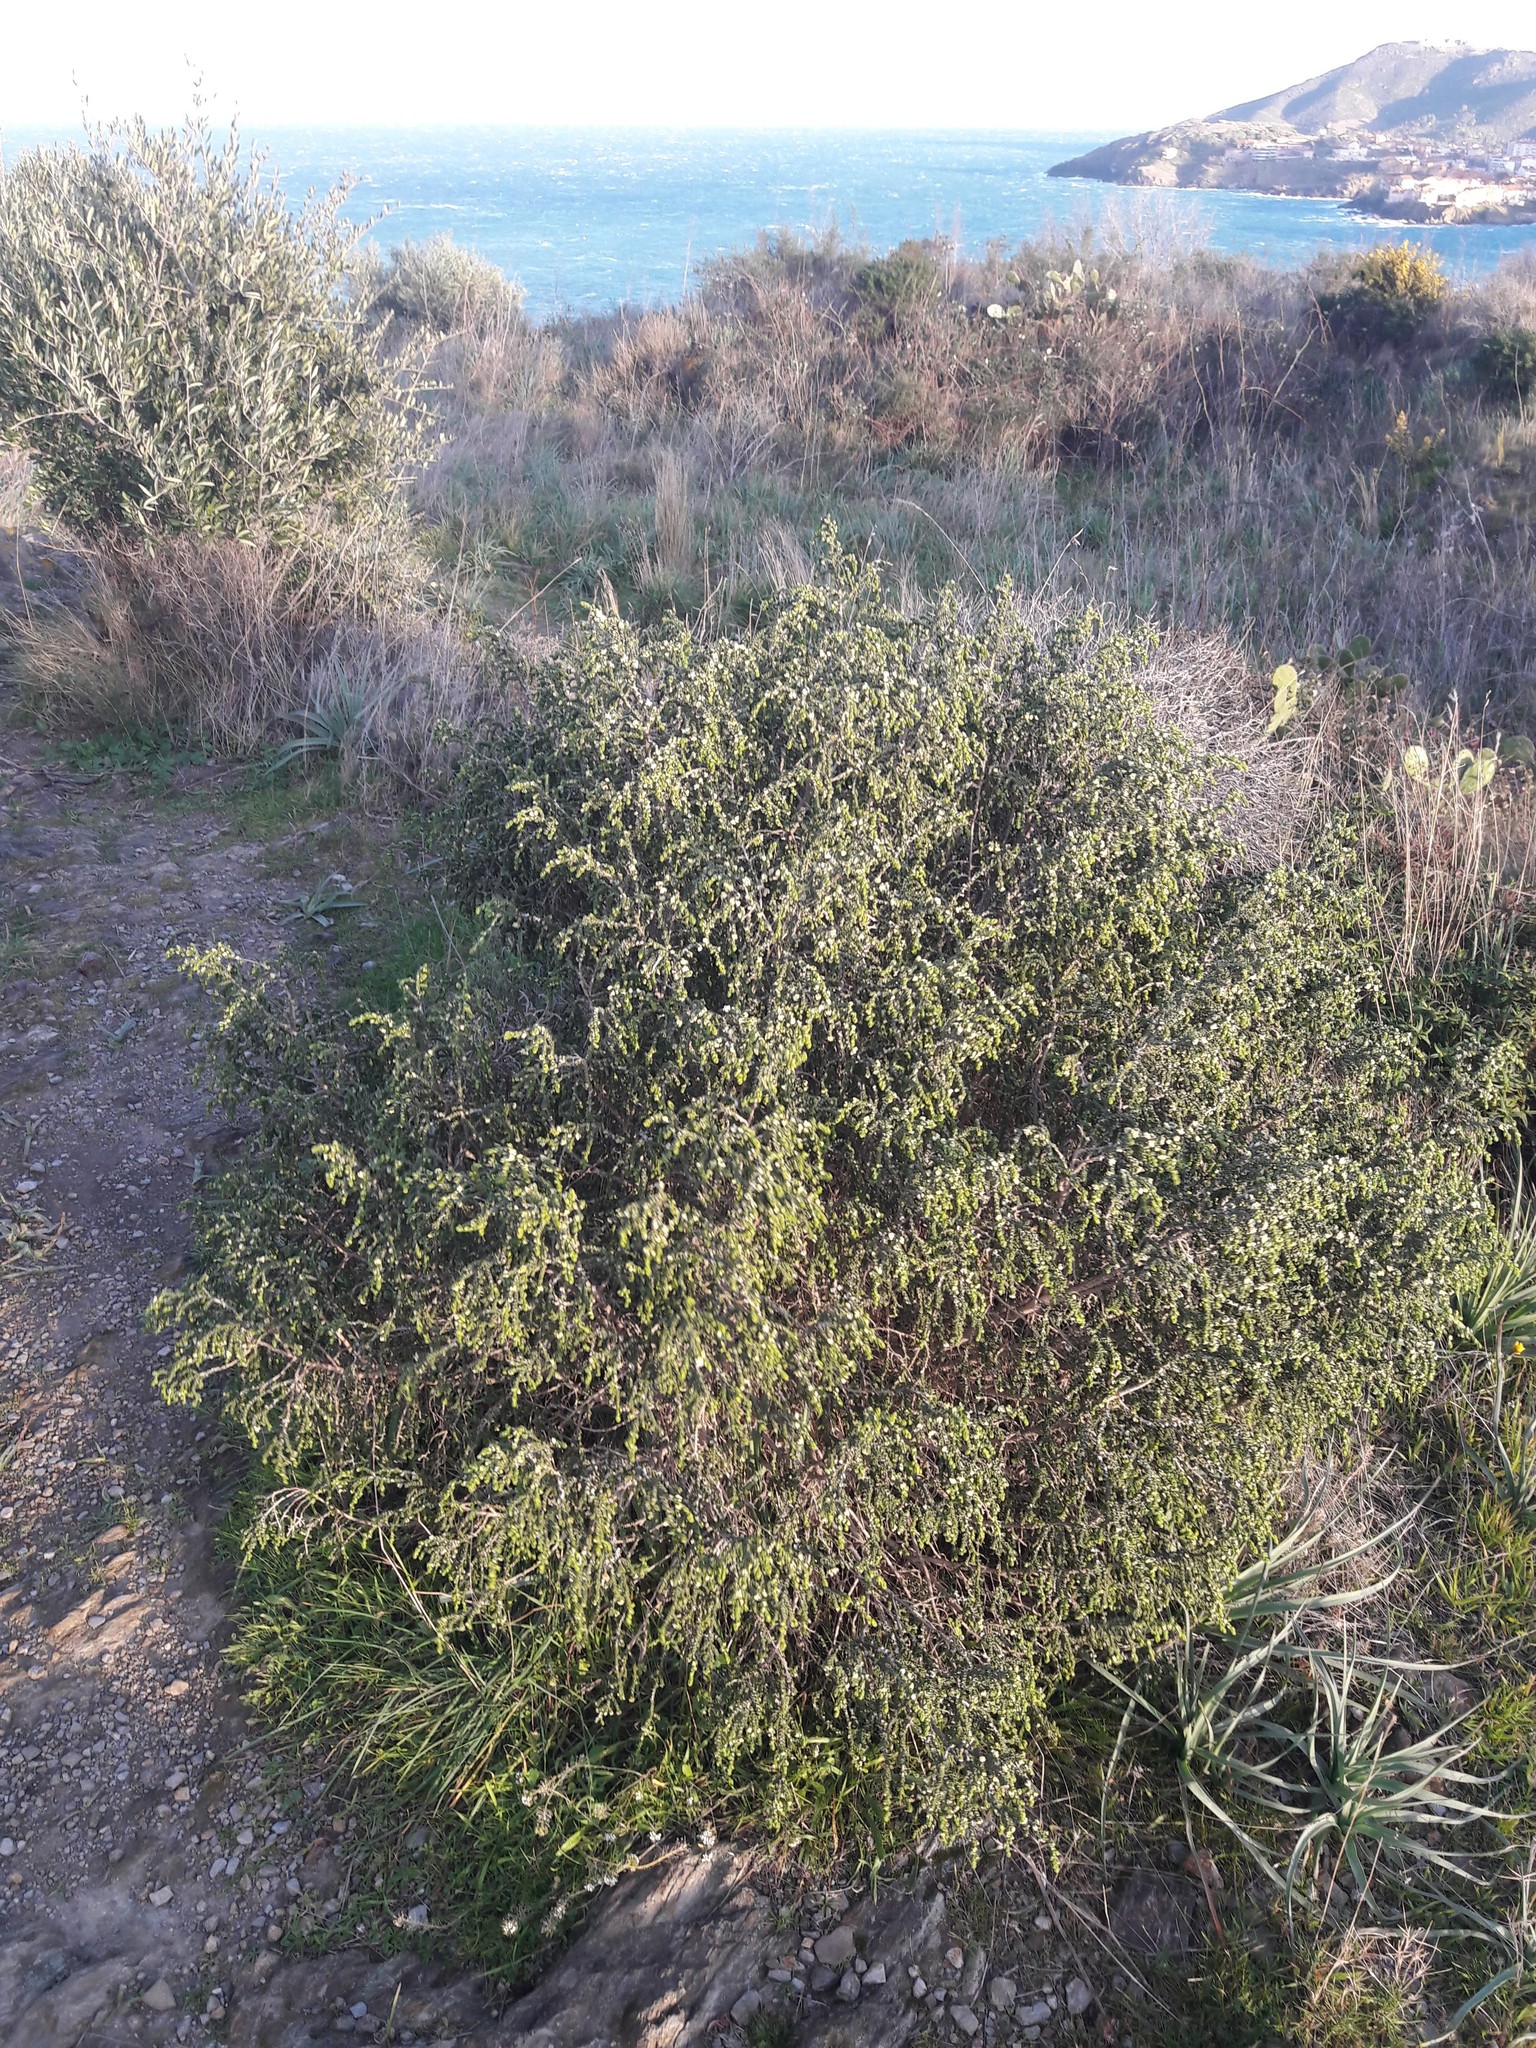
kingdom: Plantae
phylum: Tracheophyta
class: Magnoliopsida
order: Malvales
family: Thymelaeaceae
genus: Thymelaea
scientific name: Thymelaea hirsuta
